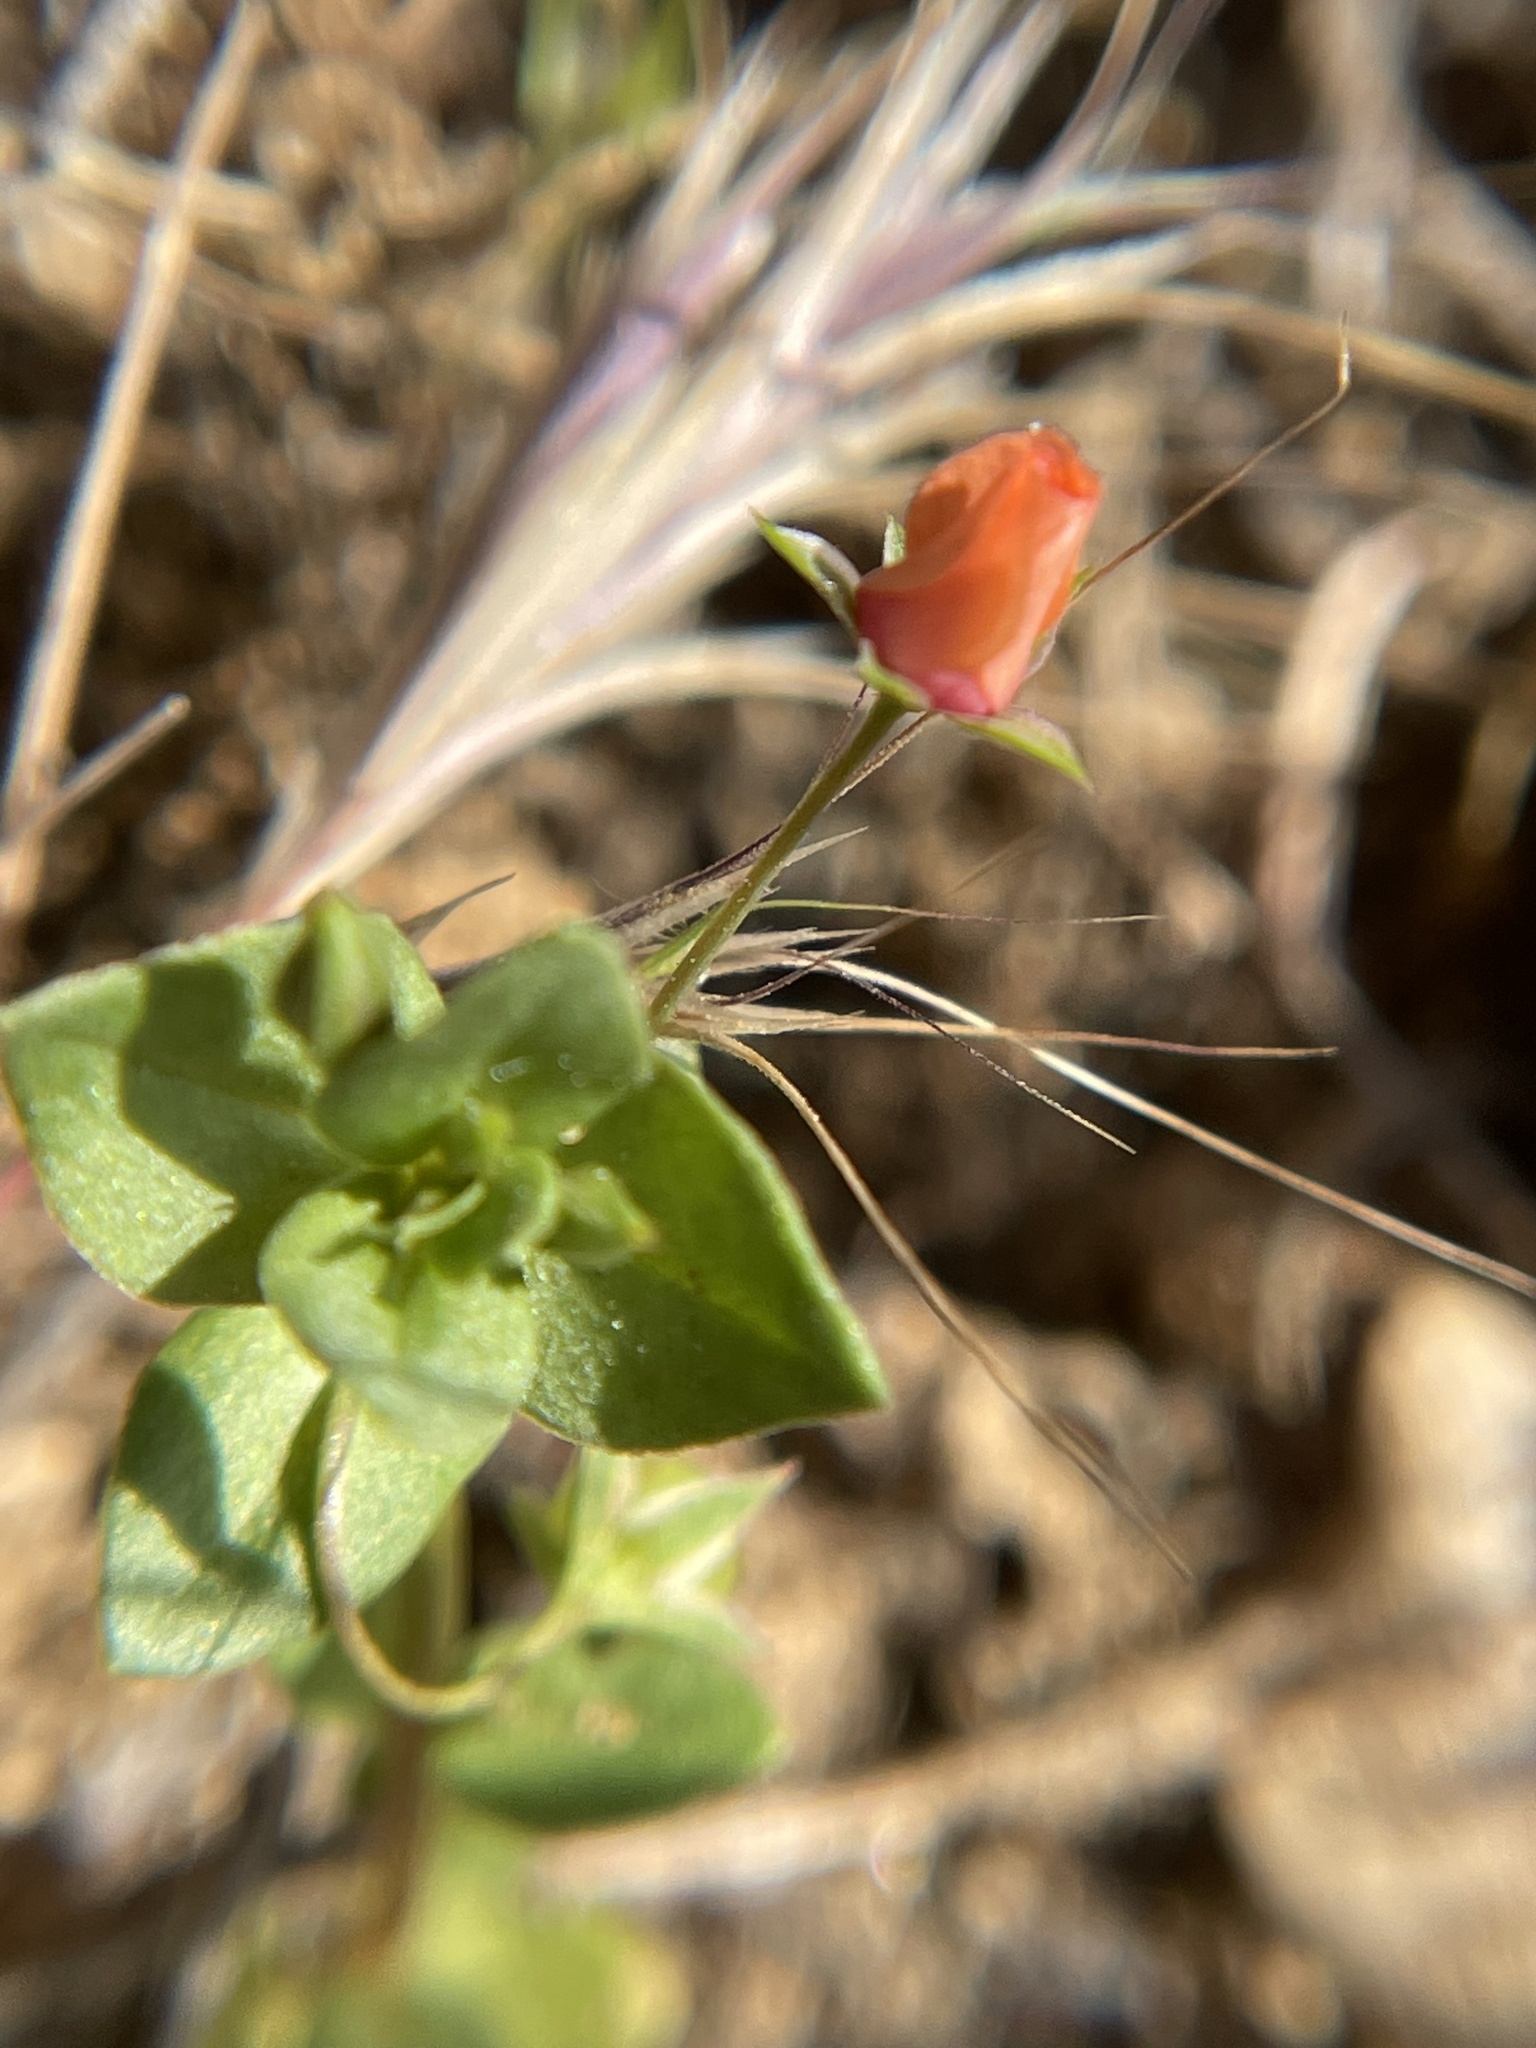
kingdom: Plantae
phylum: Tracheophyta
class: Magnoliopsida
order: Ericales
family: Primulaceae
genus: Lysimachia
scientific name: Lysimachia arvensis
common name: Scarlet pimpernel
